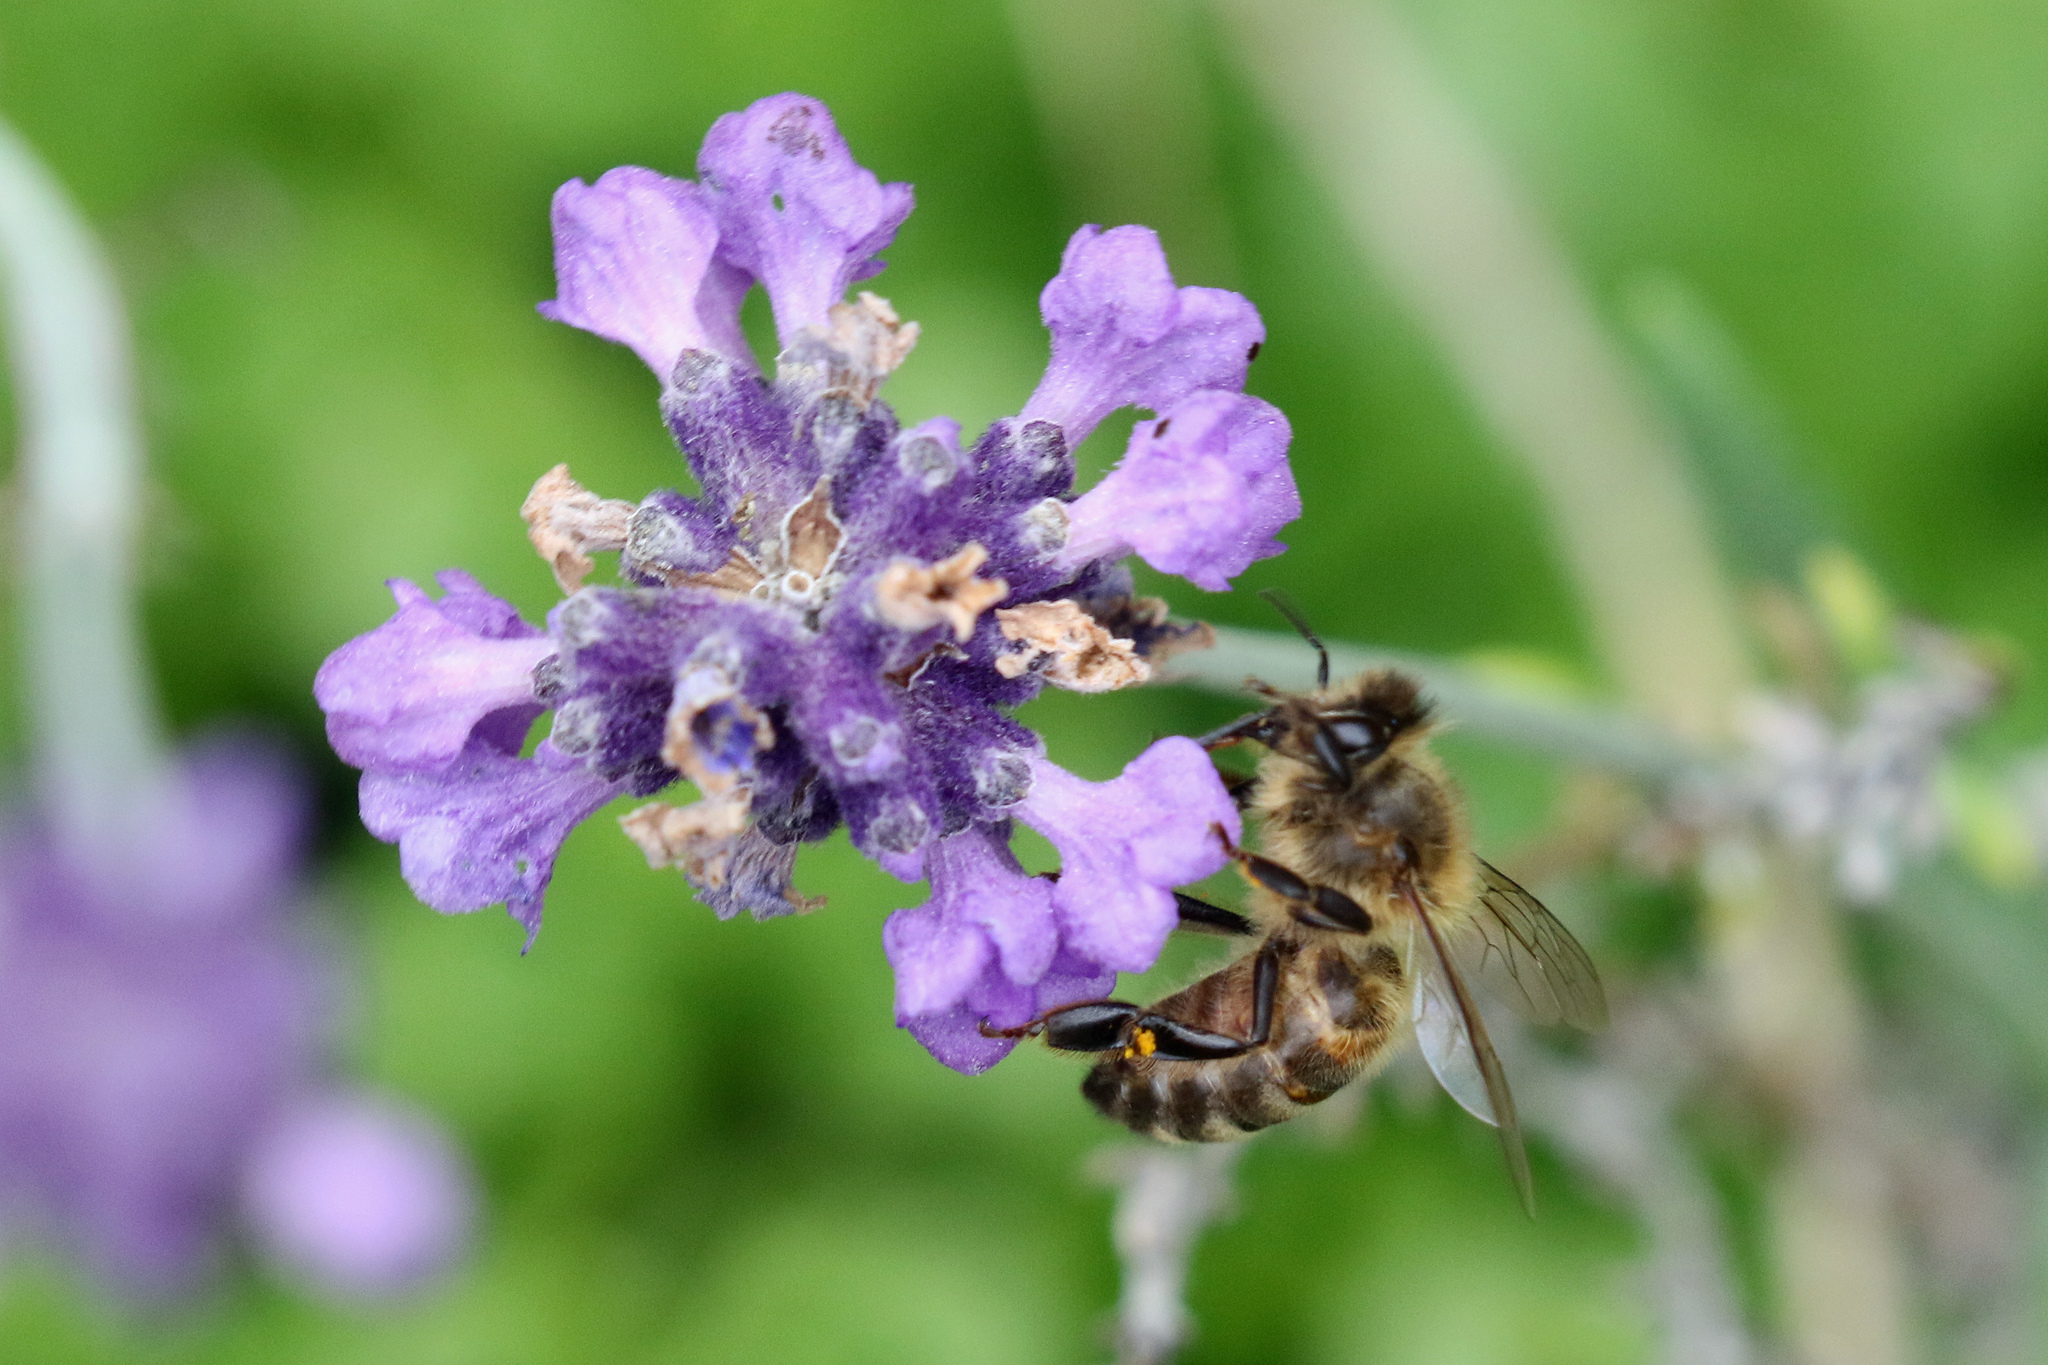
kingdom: Animalia
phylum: Arthropoda
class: Insecta
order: Hymenoptera
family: Apidae
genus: Apis
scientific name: Apis mellifera
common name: Honey bee
